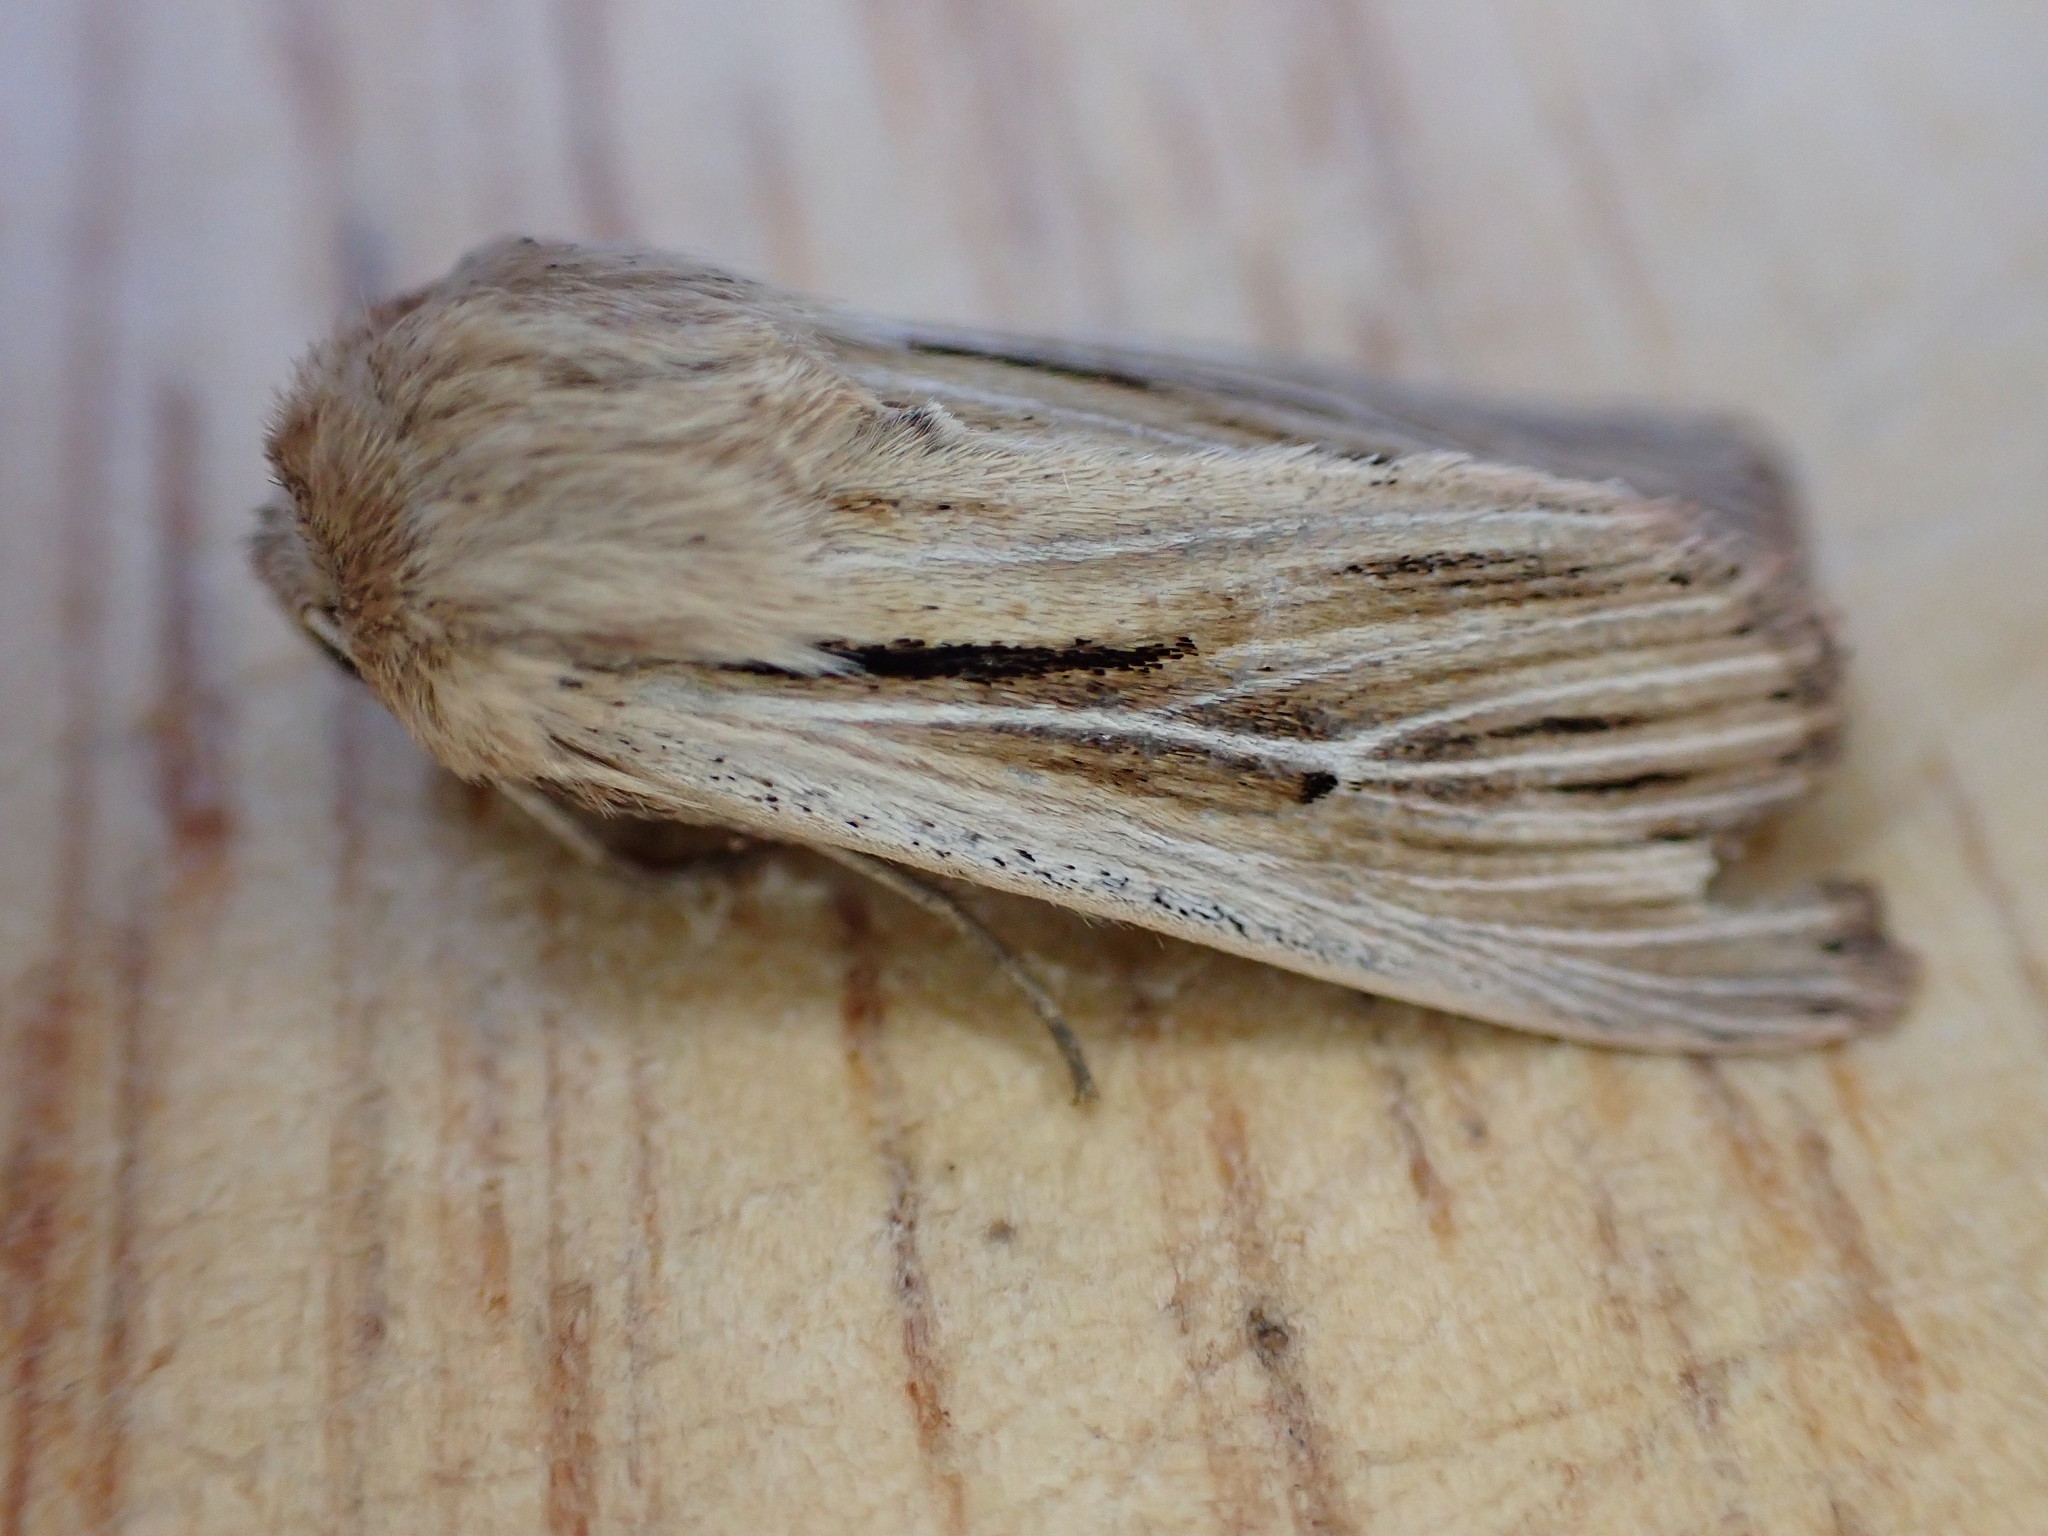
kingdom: Animalia
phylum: Arthropoda
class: Insecta
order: Lepidoptera
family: Noctuidae
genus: Leucania
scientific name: Leucania comma
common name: Shoulder-striped wainscot
